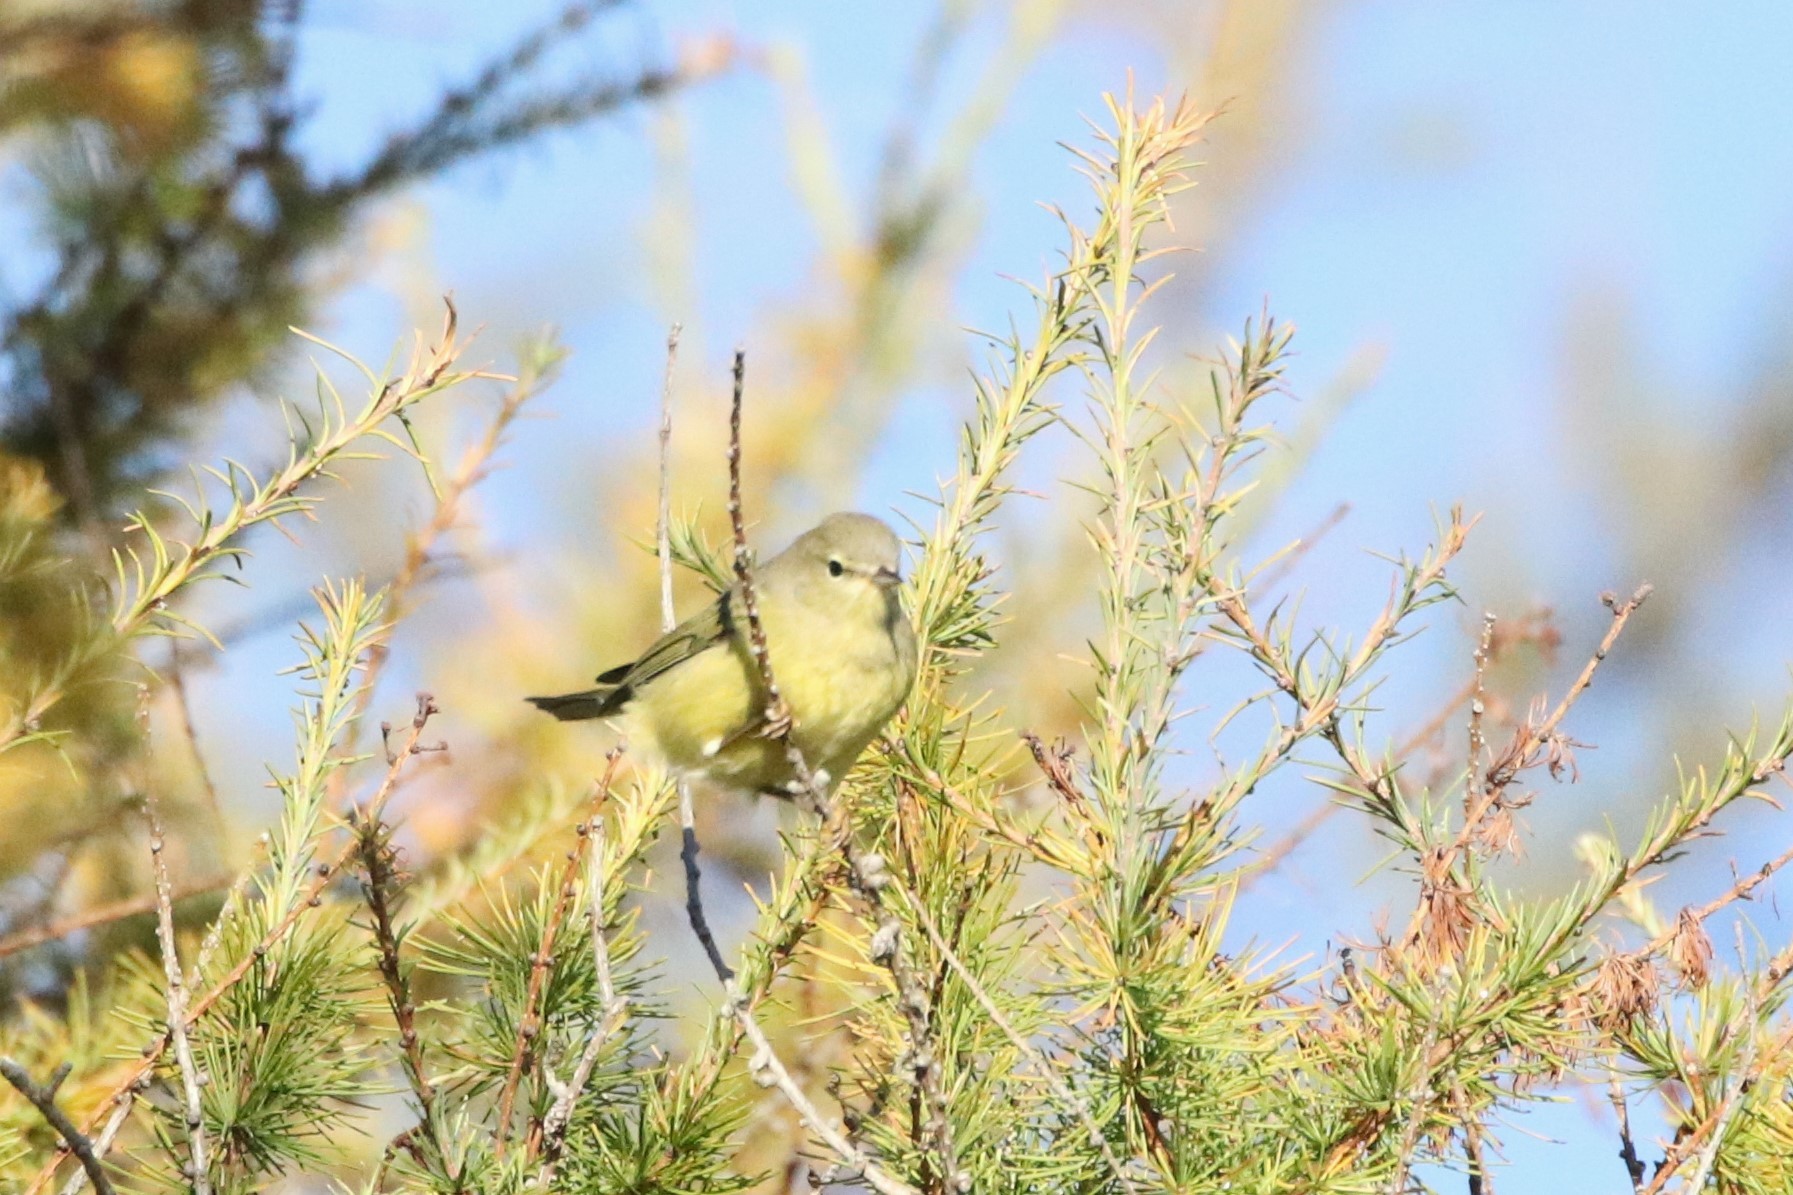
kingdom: Animalia
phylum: Chordata
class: Aves
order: Passeriformes
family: Parulidae
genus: Leiothlypis
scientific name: Leiothlypis celata
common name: Orange-crowned warbler
